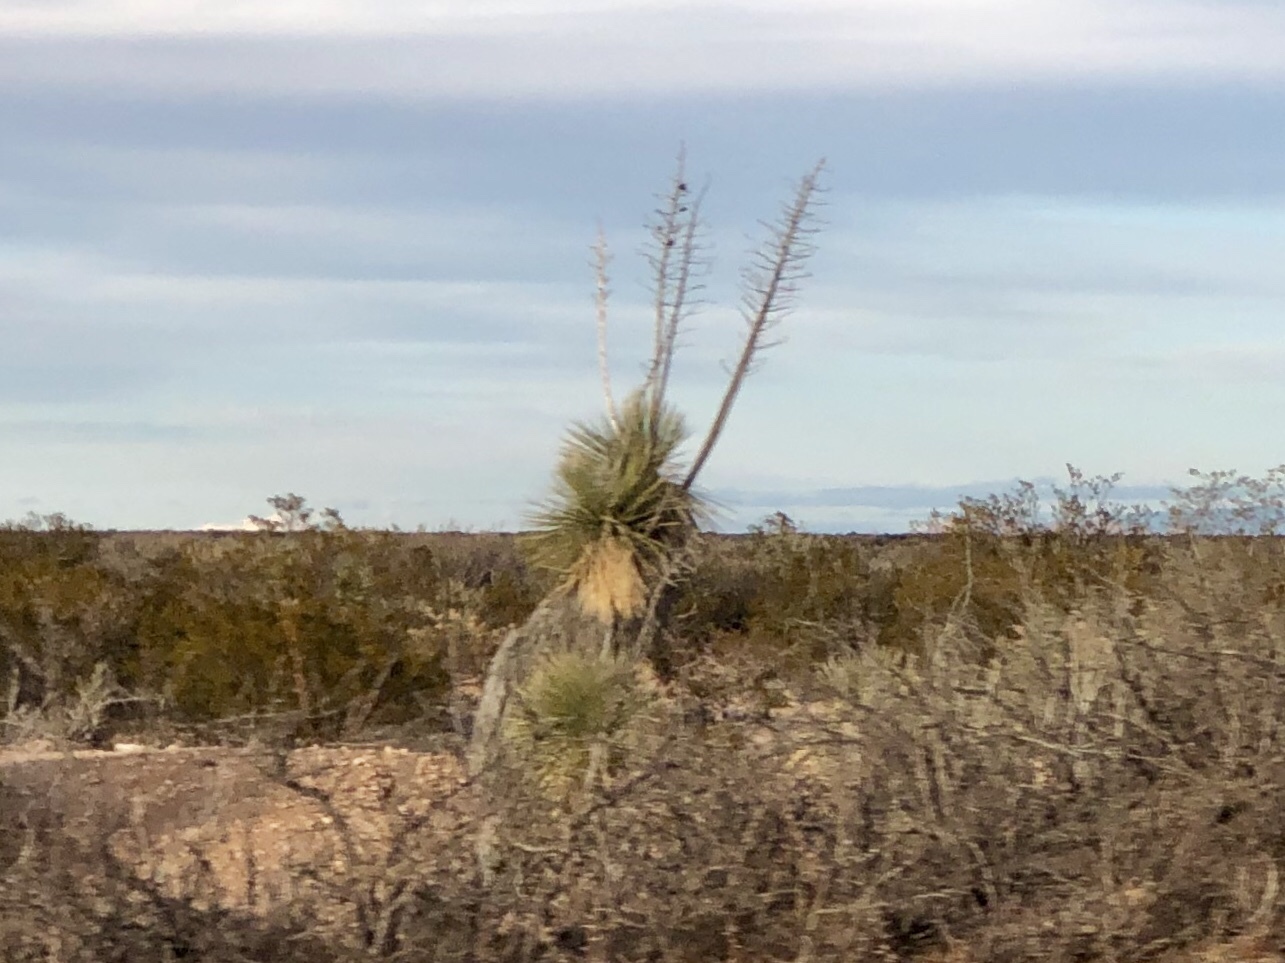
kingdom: Plantae
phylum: Tracheophyta
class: Liliopsida
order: Asparagales
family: Asparagaceae
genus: Yucca
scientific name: Yucca elata
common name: Palmella
